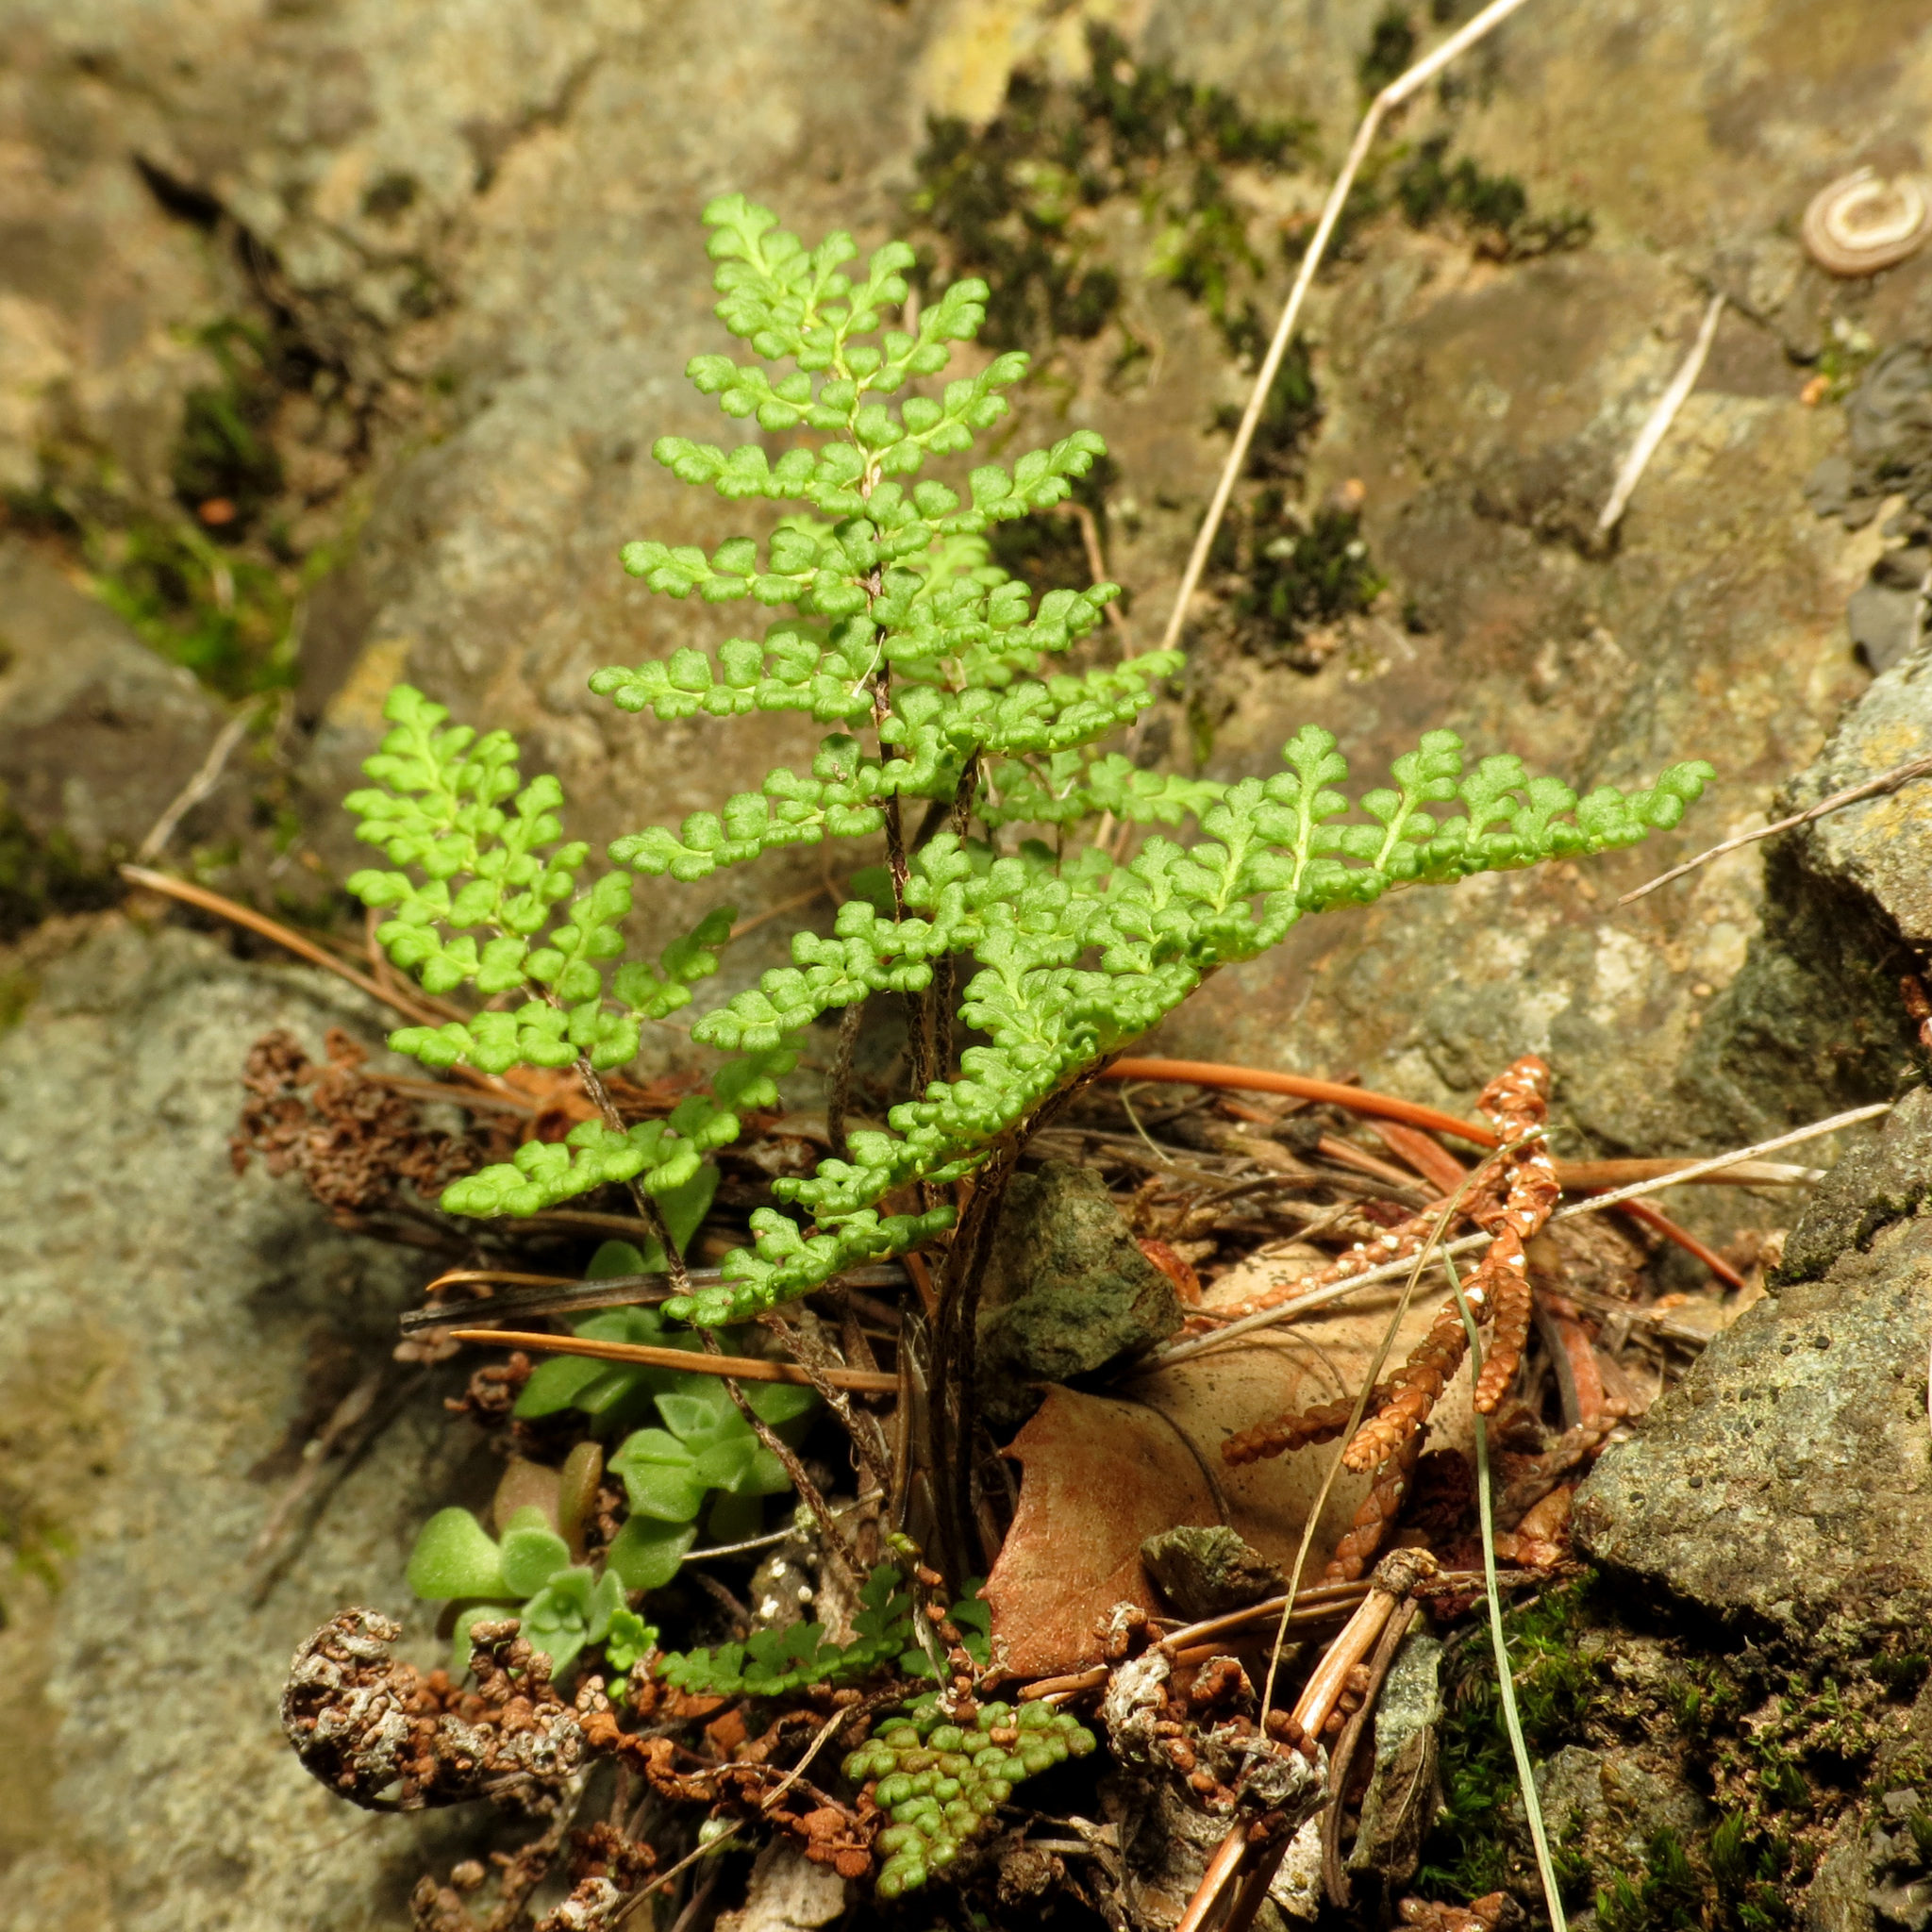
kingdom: Plantae
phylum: Tracheophyta
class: Polypodiopsida
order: Polypodiales
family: Pteridaceae
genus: Myriopteris
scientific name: Myriopteris fendleri
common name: Fendler's lip fern
